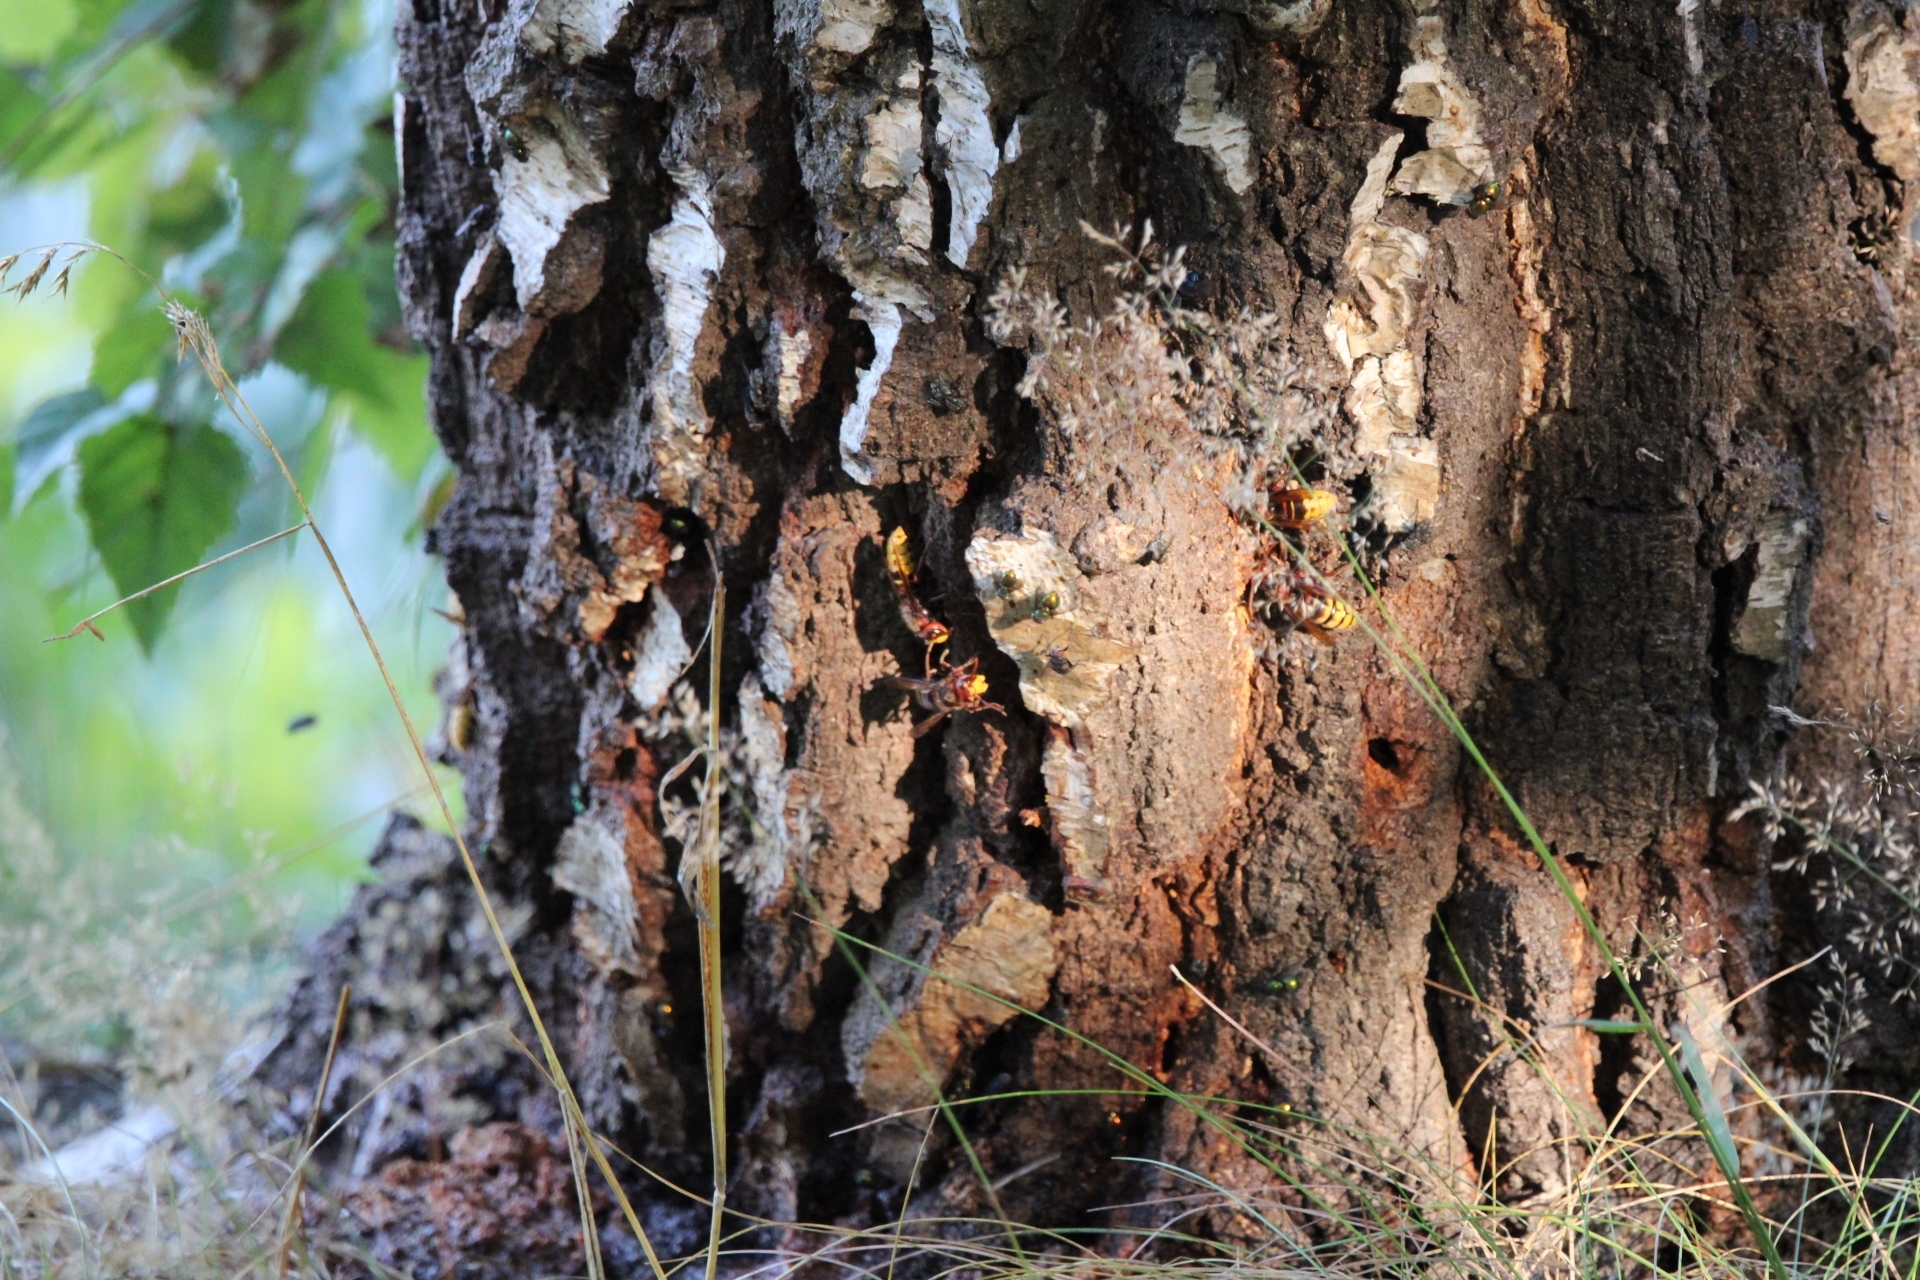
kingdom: Animalia
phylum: Arthropoda
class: Insecta
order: Hymenoptera
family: Vespidae
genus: Vespa
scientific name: Vespa crabro
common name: Hornet
